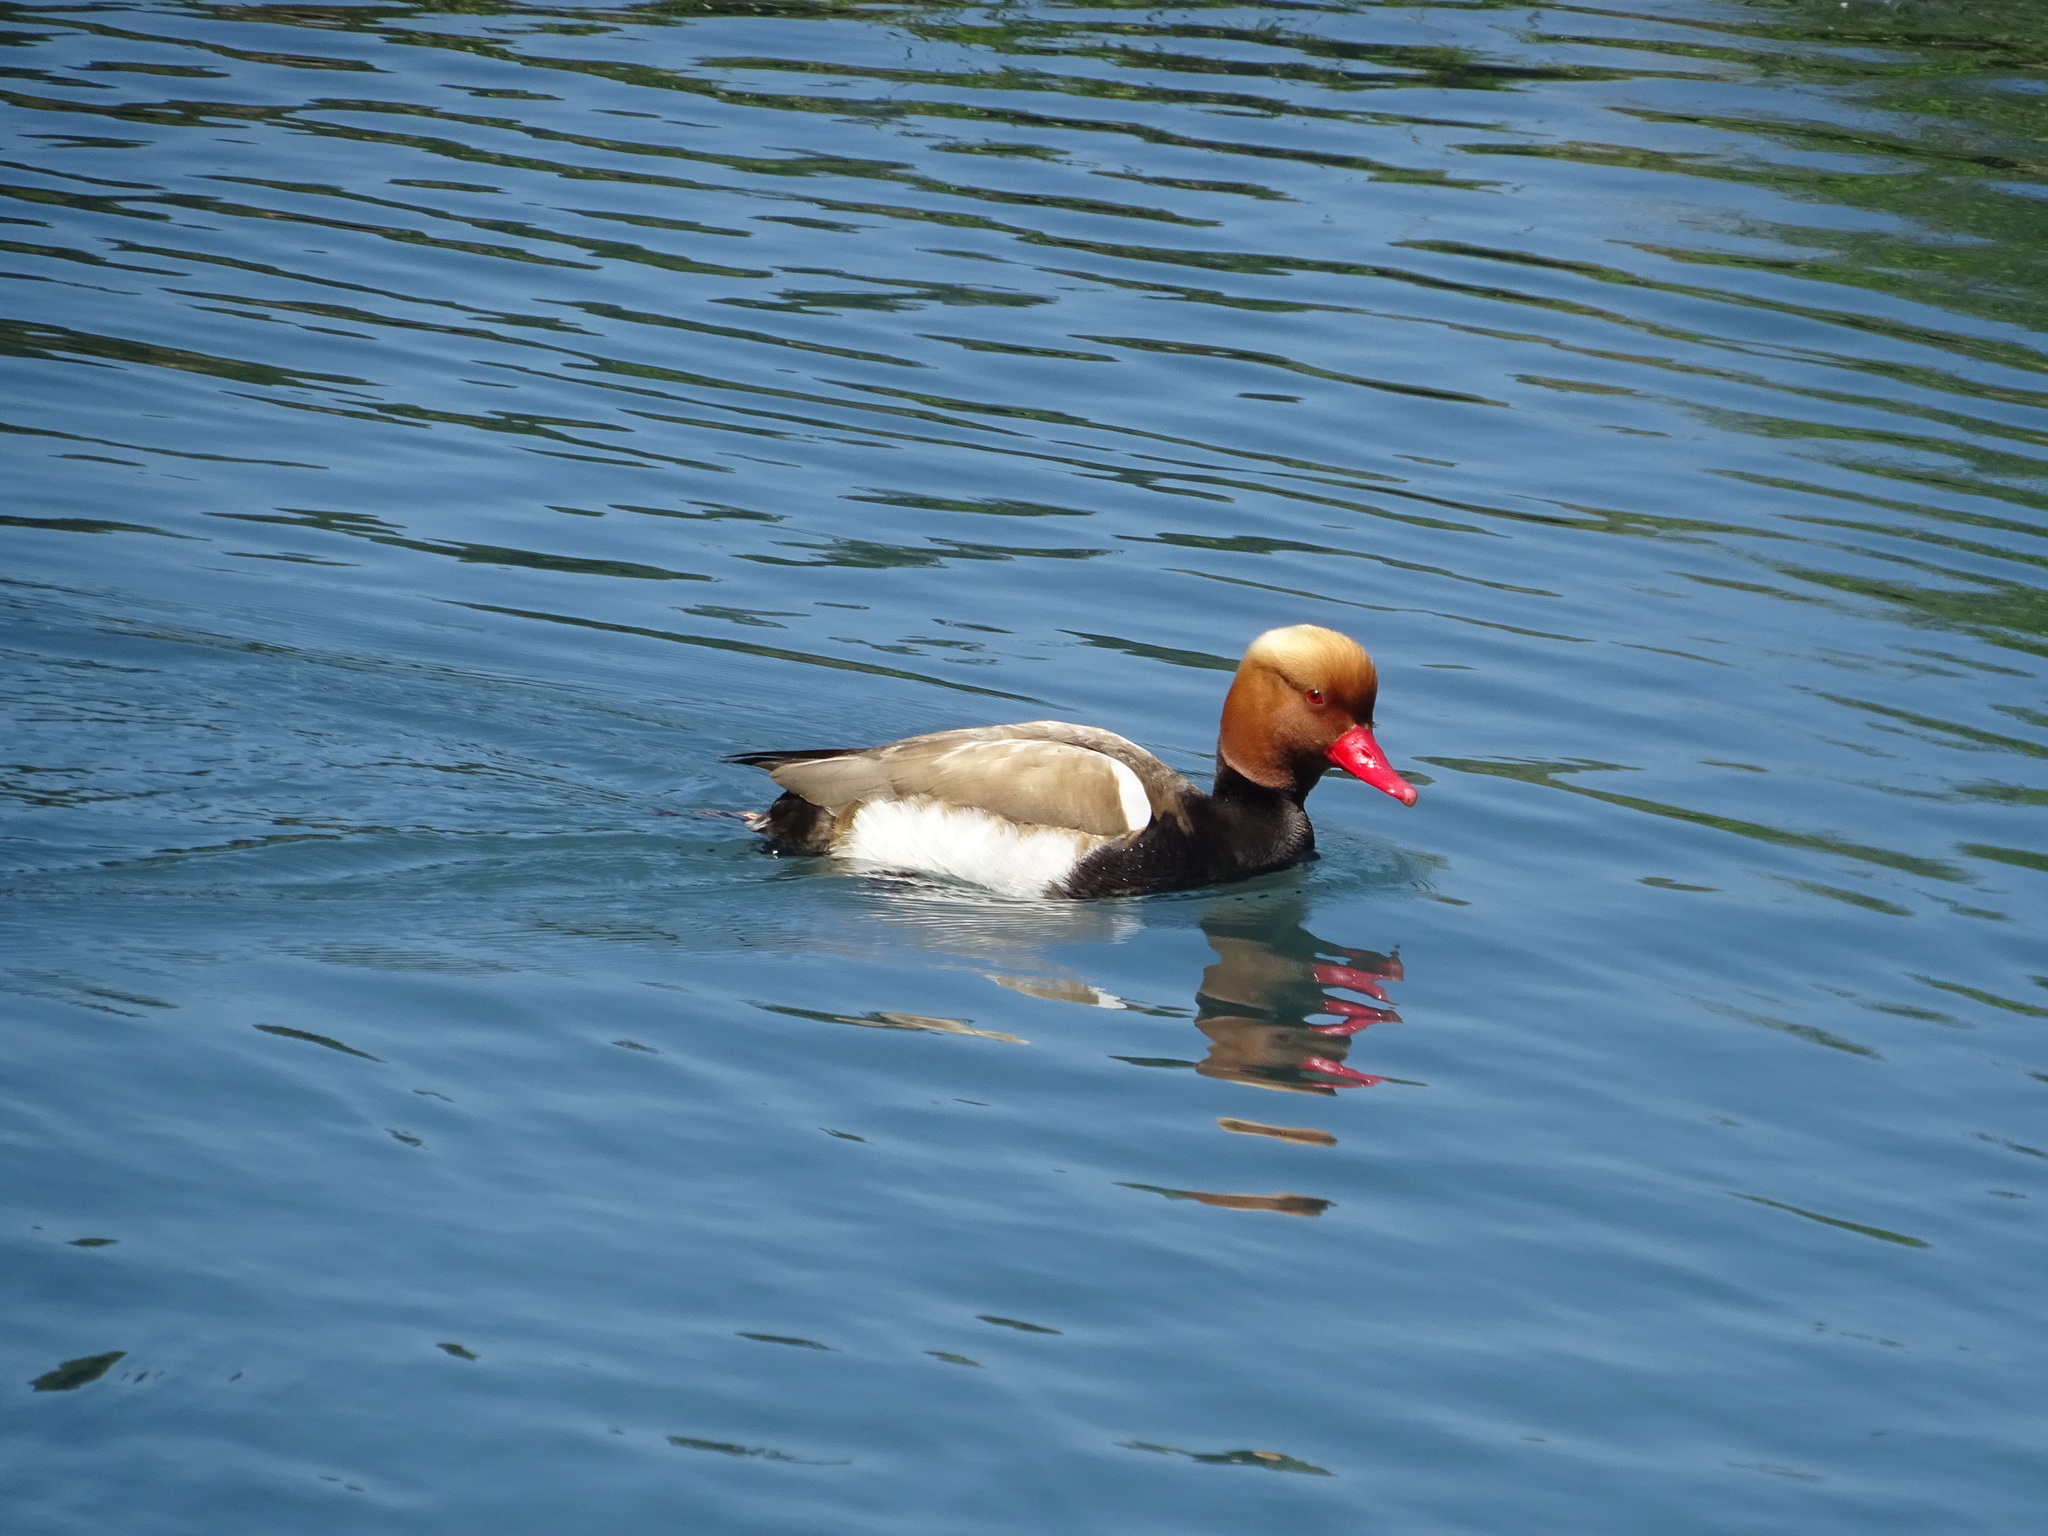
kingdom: Animalia
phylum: Chordata
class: Aves
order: Anseriformes
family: Anatidae
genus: Netta
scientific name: Netta rufina
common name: Red-crested pochard
